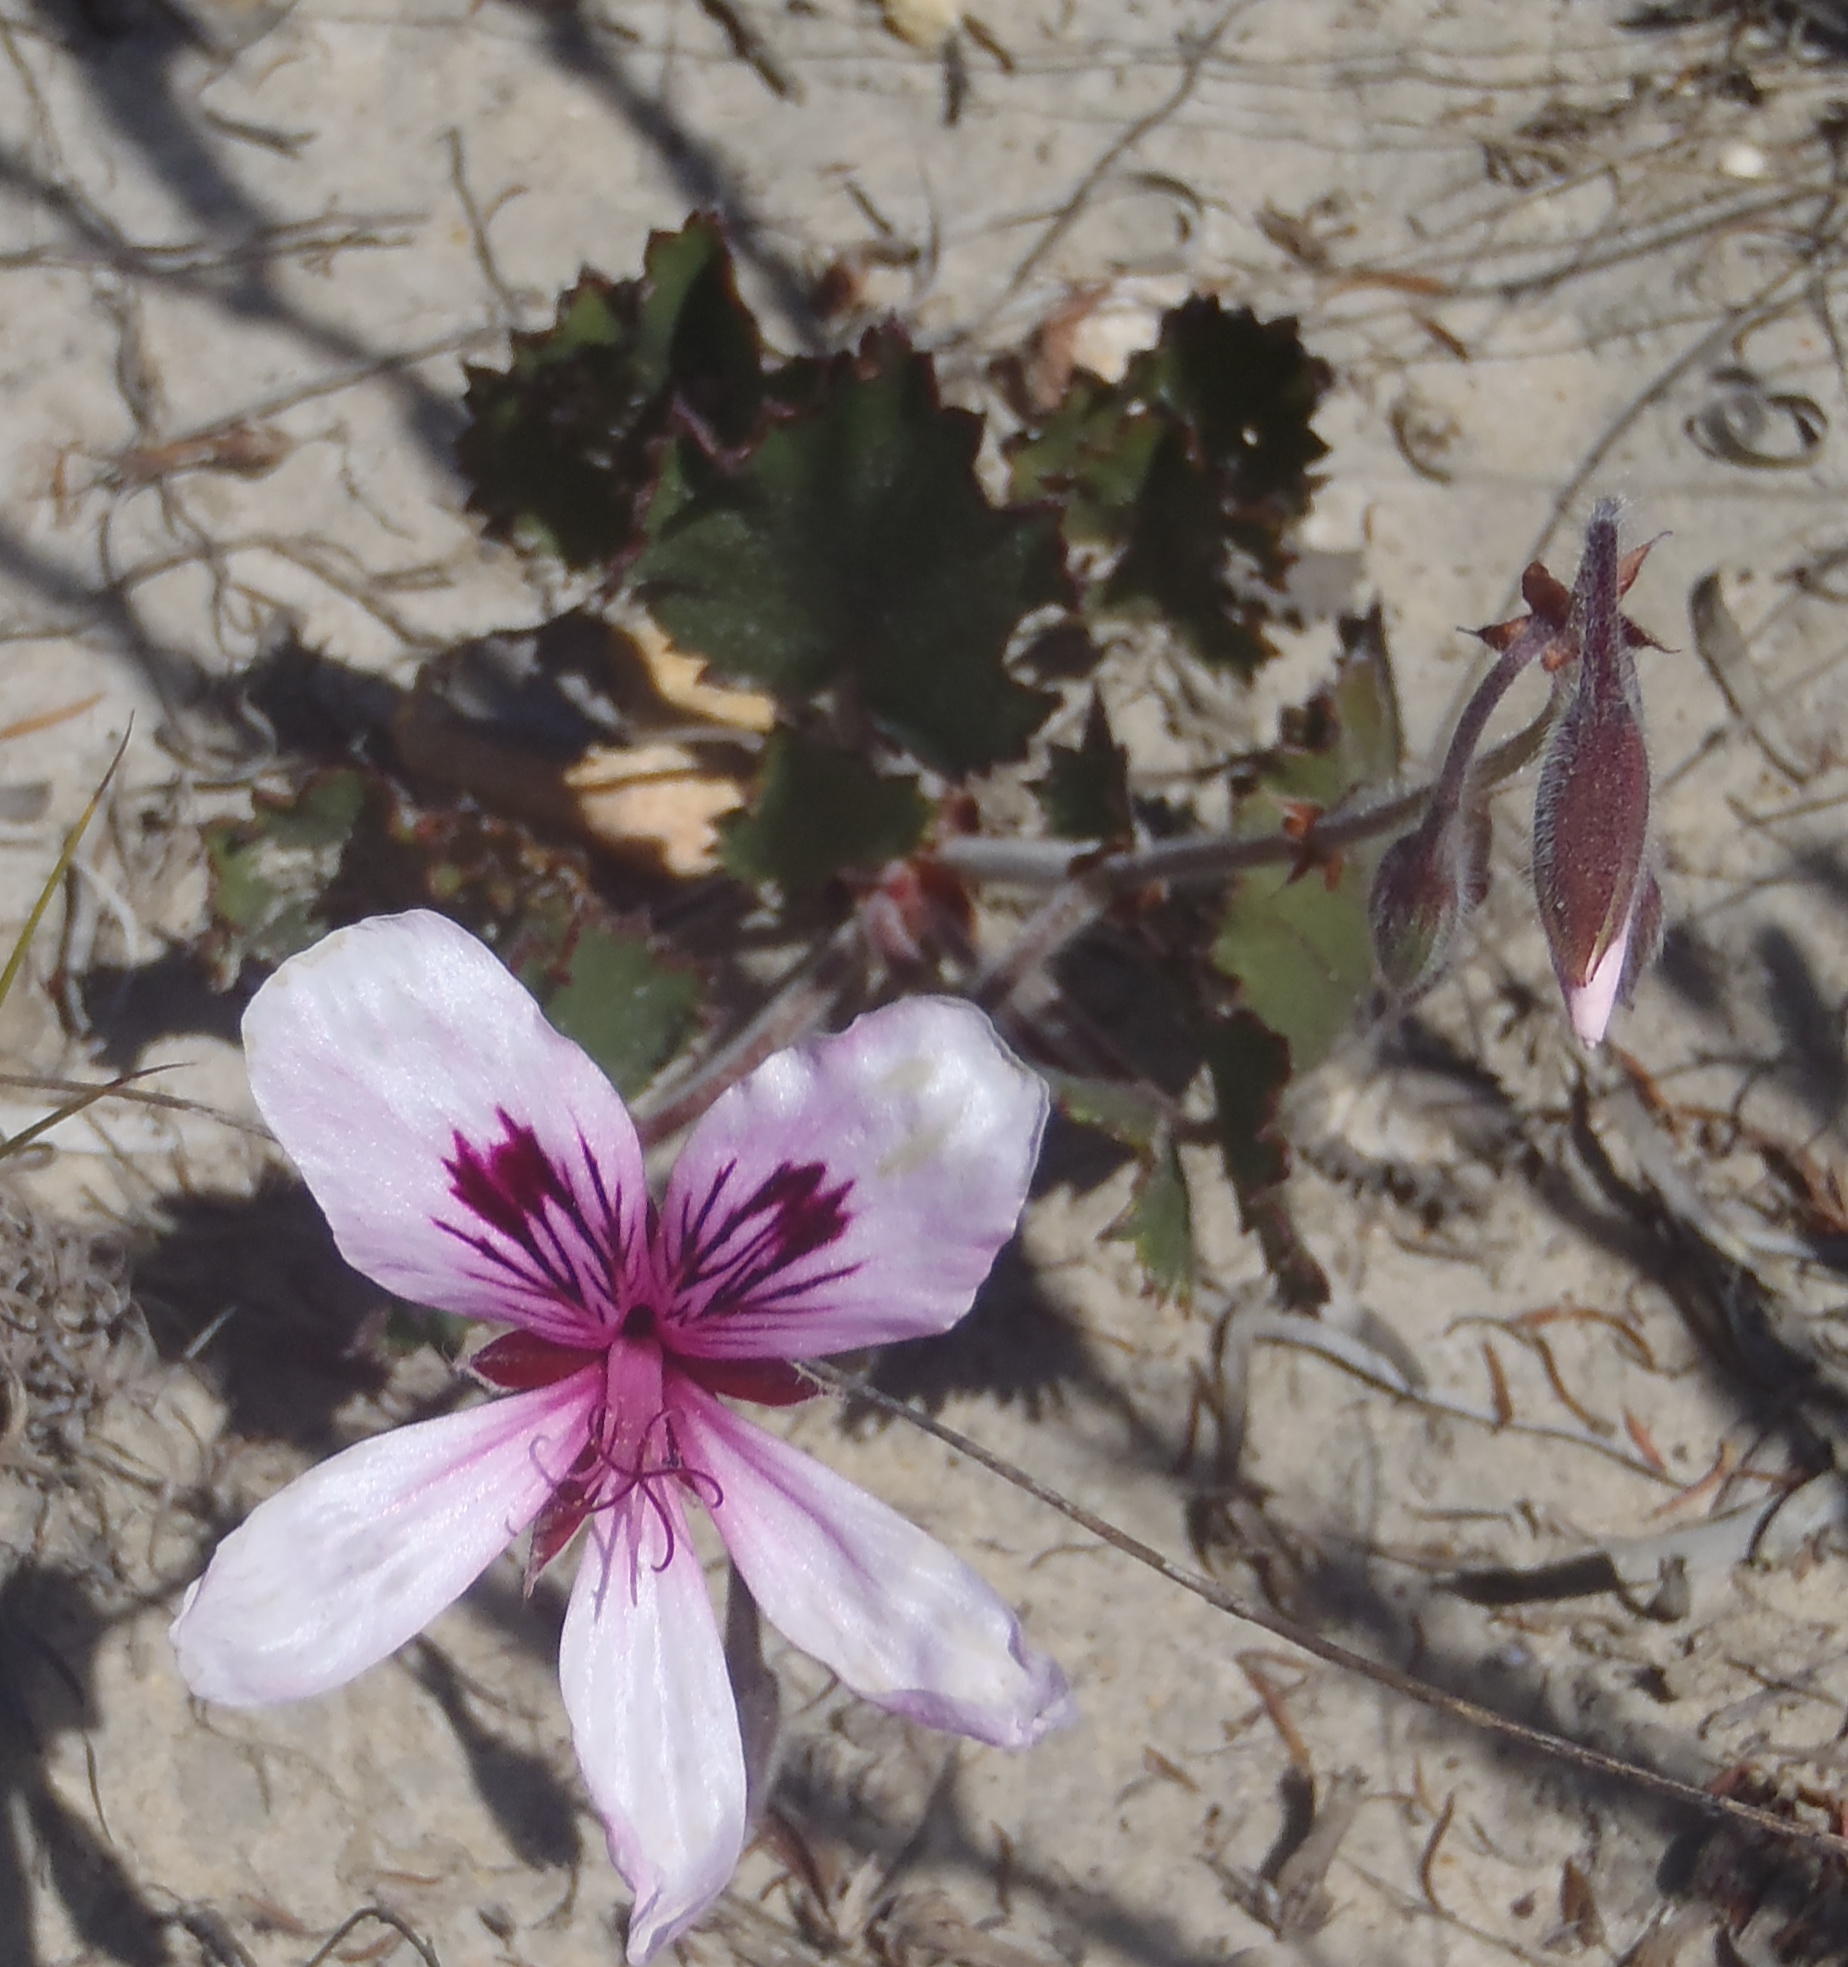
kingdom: Plantae
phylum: Tracheophyta
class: Magnoliopsida
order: Geraniales
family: Geraniaceae
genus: Pelargonium
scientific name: Pelargonium elegans
